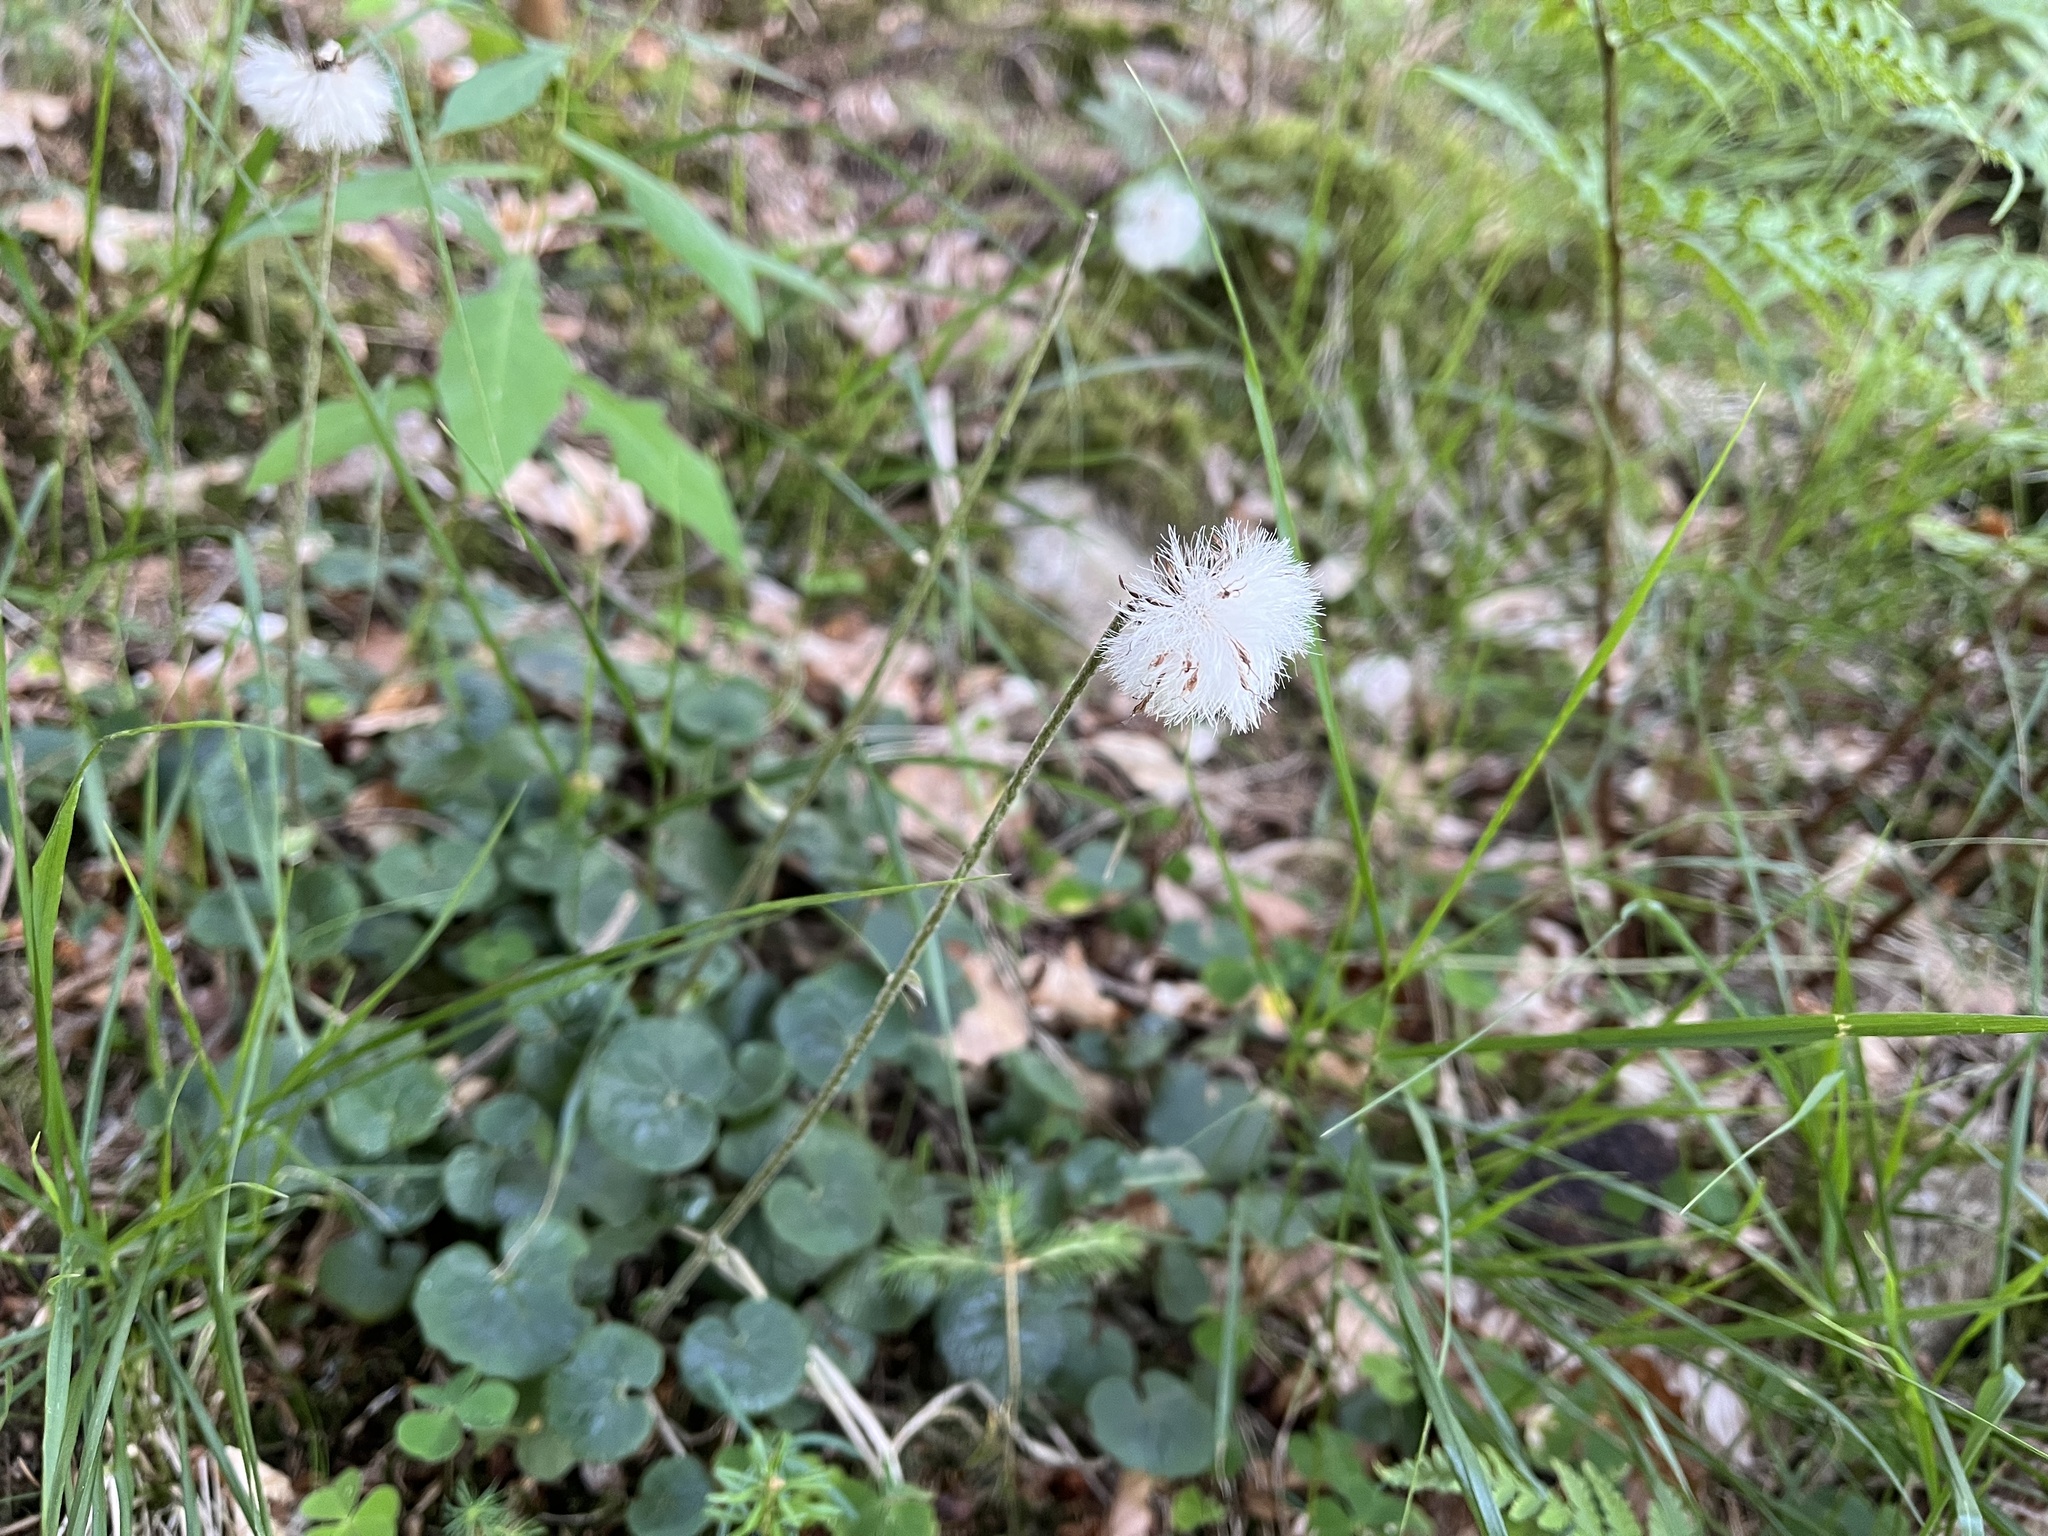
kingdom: Plantae
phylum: Tracheophyta
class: Magnoliopsida
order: Asterales
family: Asteraceae
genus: Homogyne
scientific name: Homogyne alpina
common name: Purple colt's-foot
